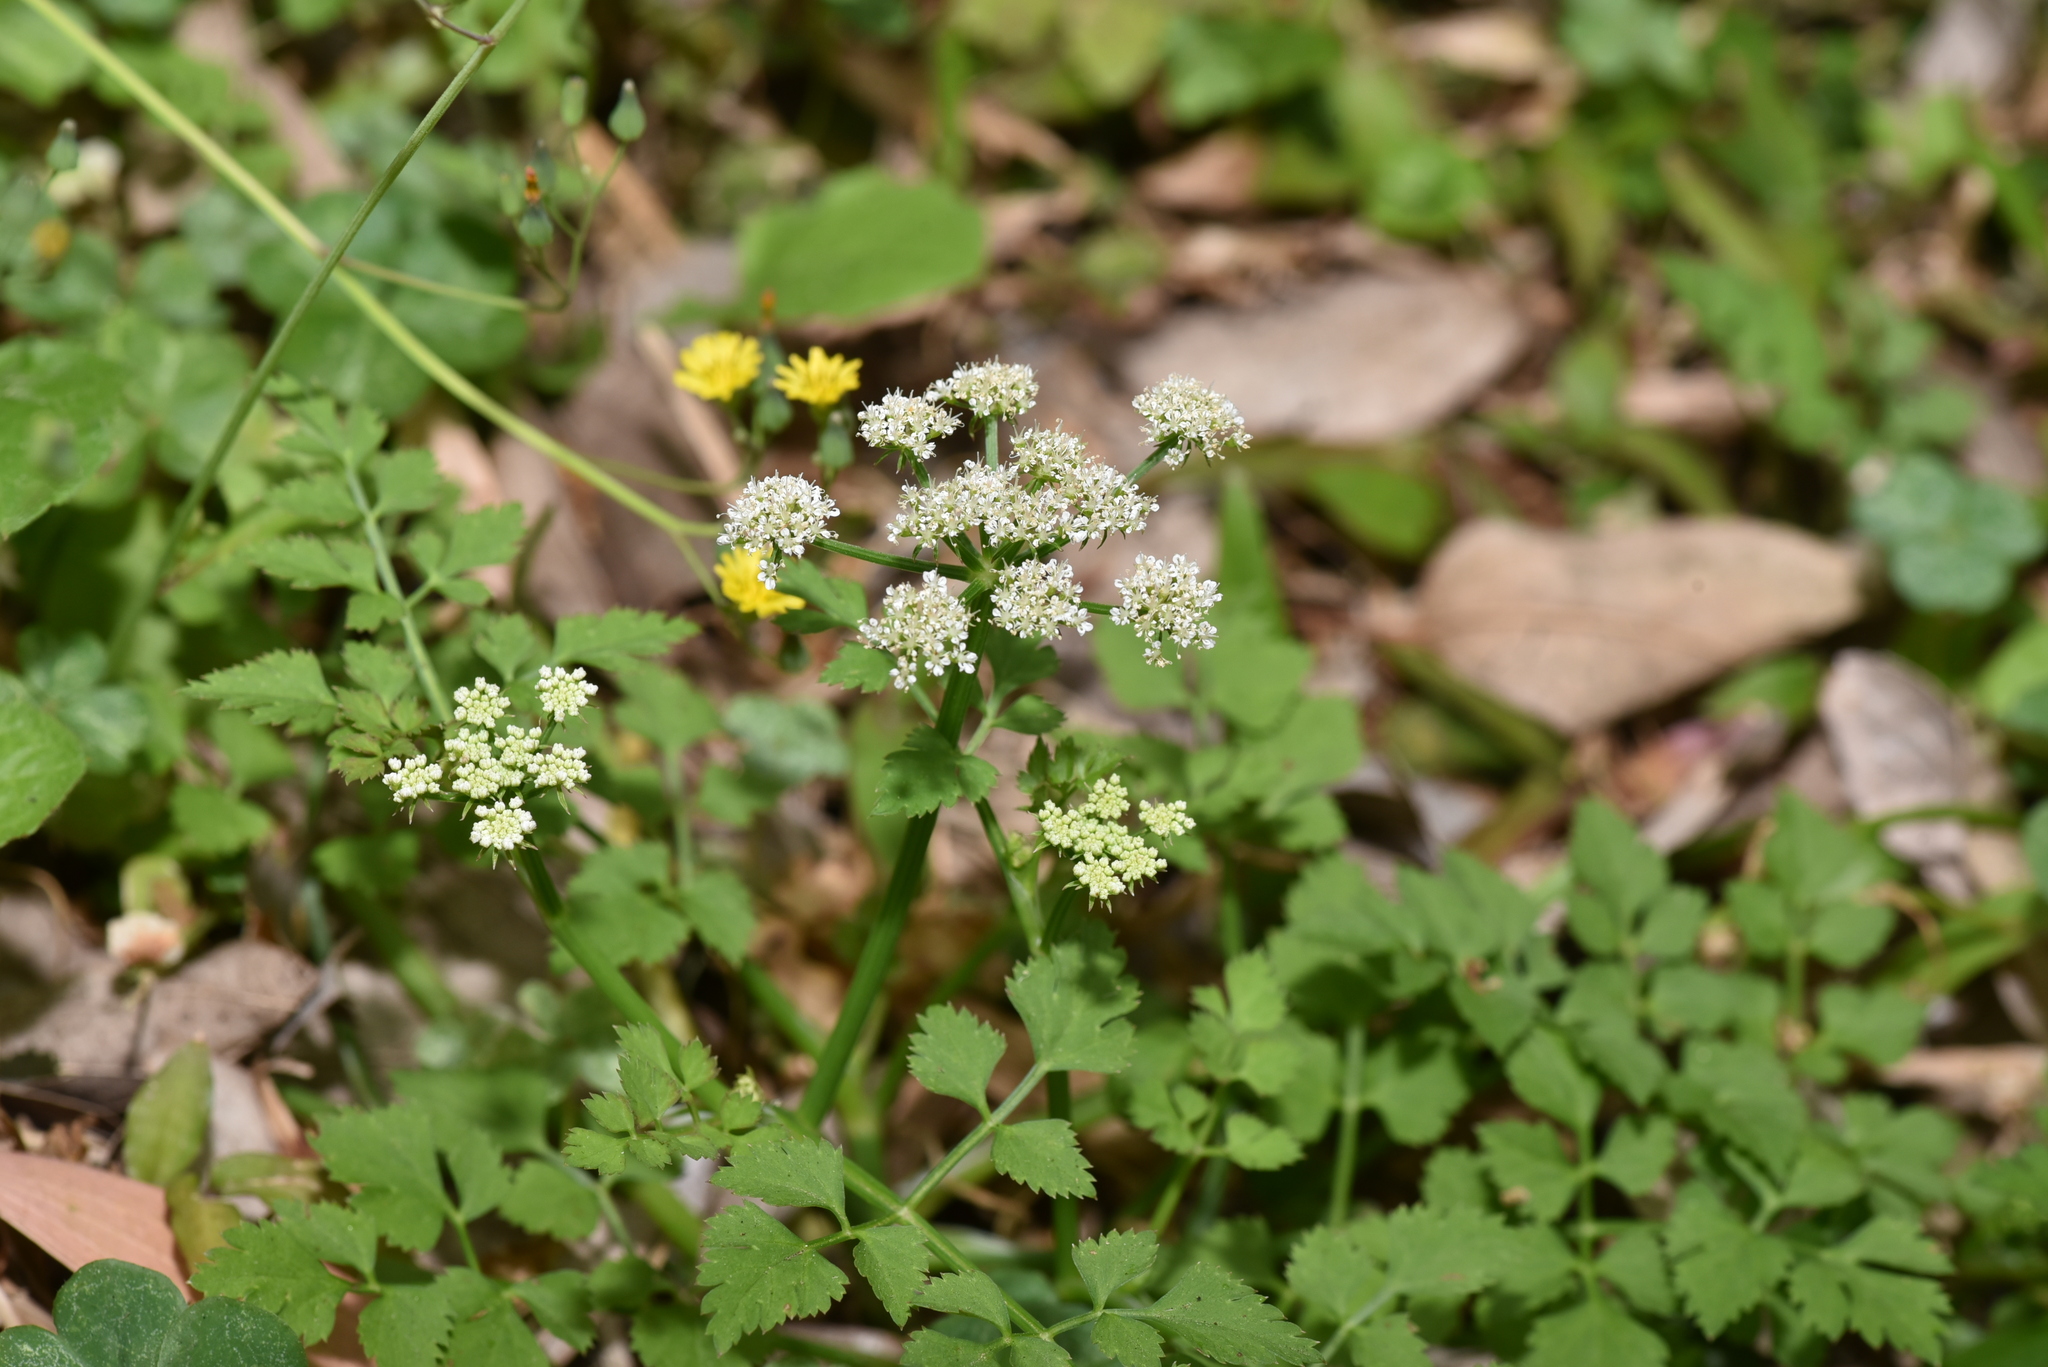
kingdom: Plantae
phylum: Tracheophyta
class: Magnoliopsida
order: Apiales
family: Apiaceae
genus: Oenanthe
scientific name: Oenanthe javanica
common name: Java water-dropwort
